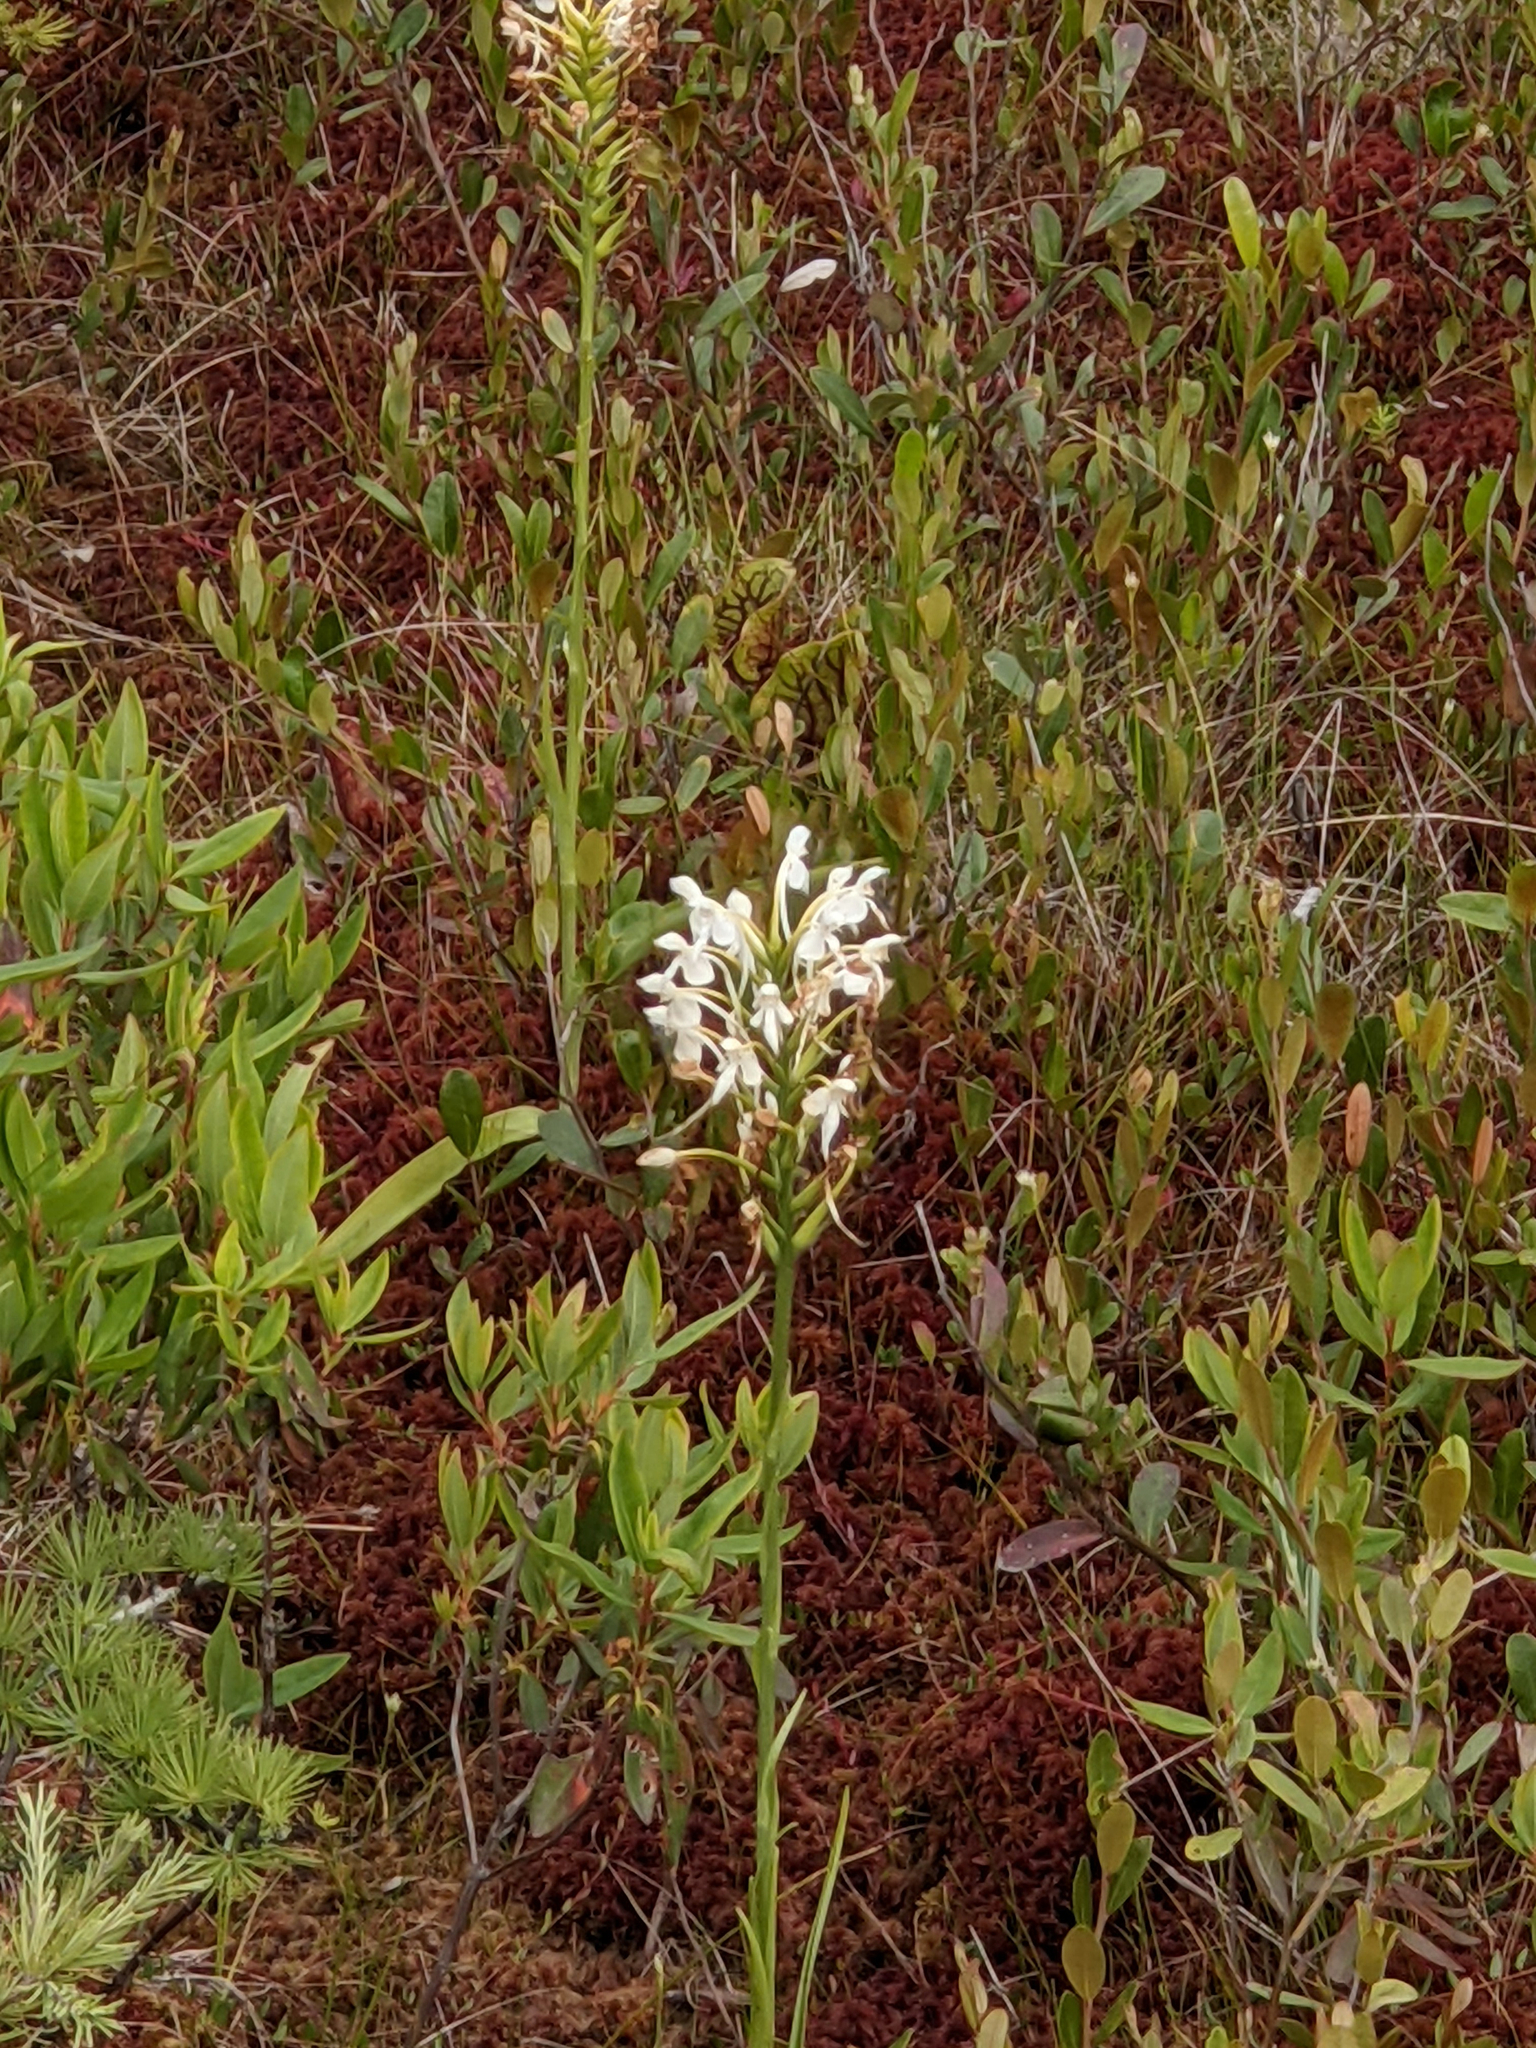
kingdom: Plantae
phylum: Tracheophyta
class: Liliopsida
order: Asparagales
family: Orchidaceae
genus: Platanthera
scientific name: Platanthera blephariglottis
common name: White fringed orchid
